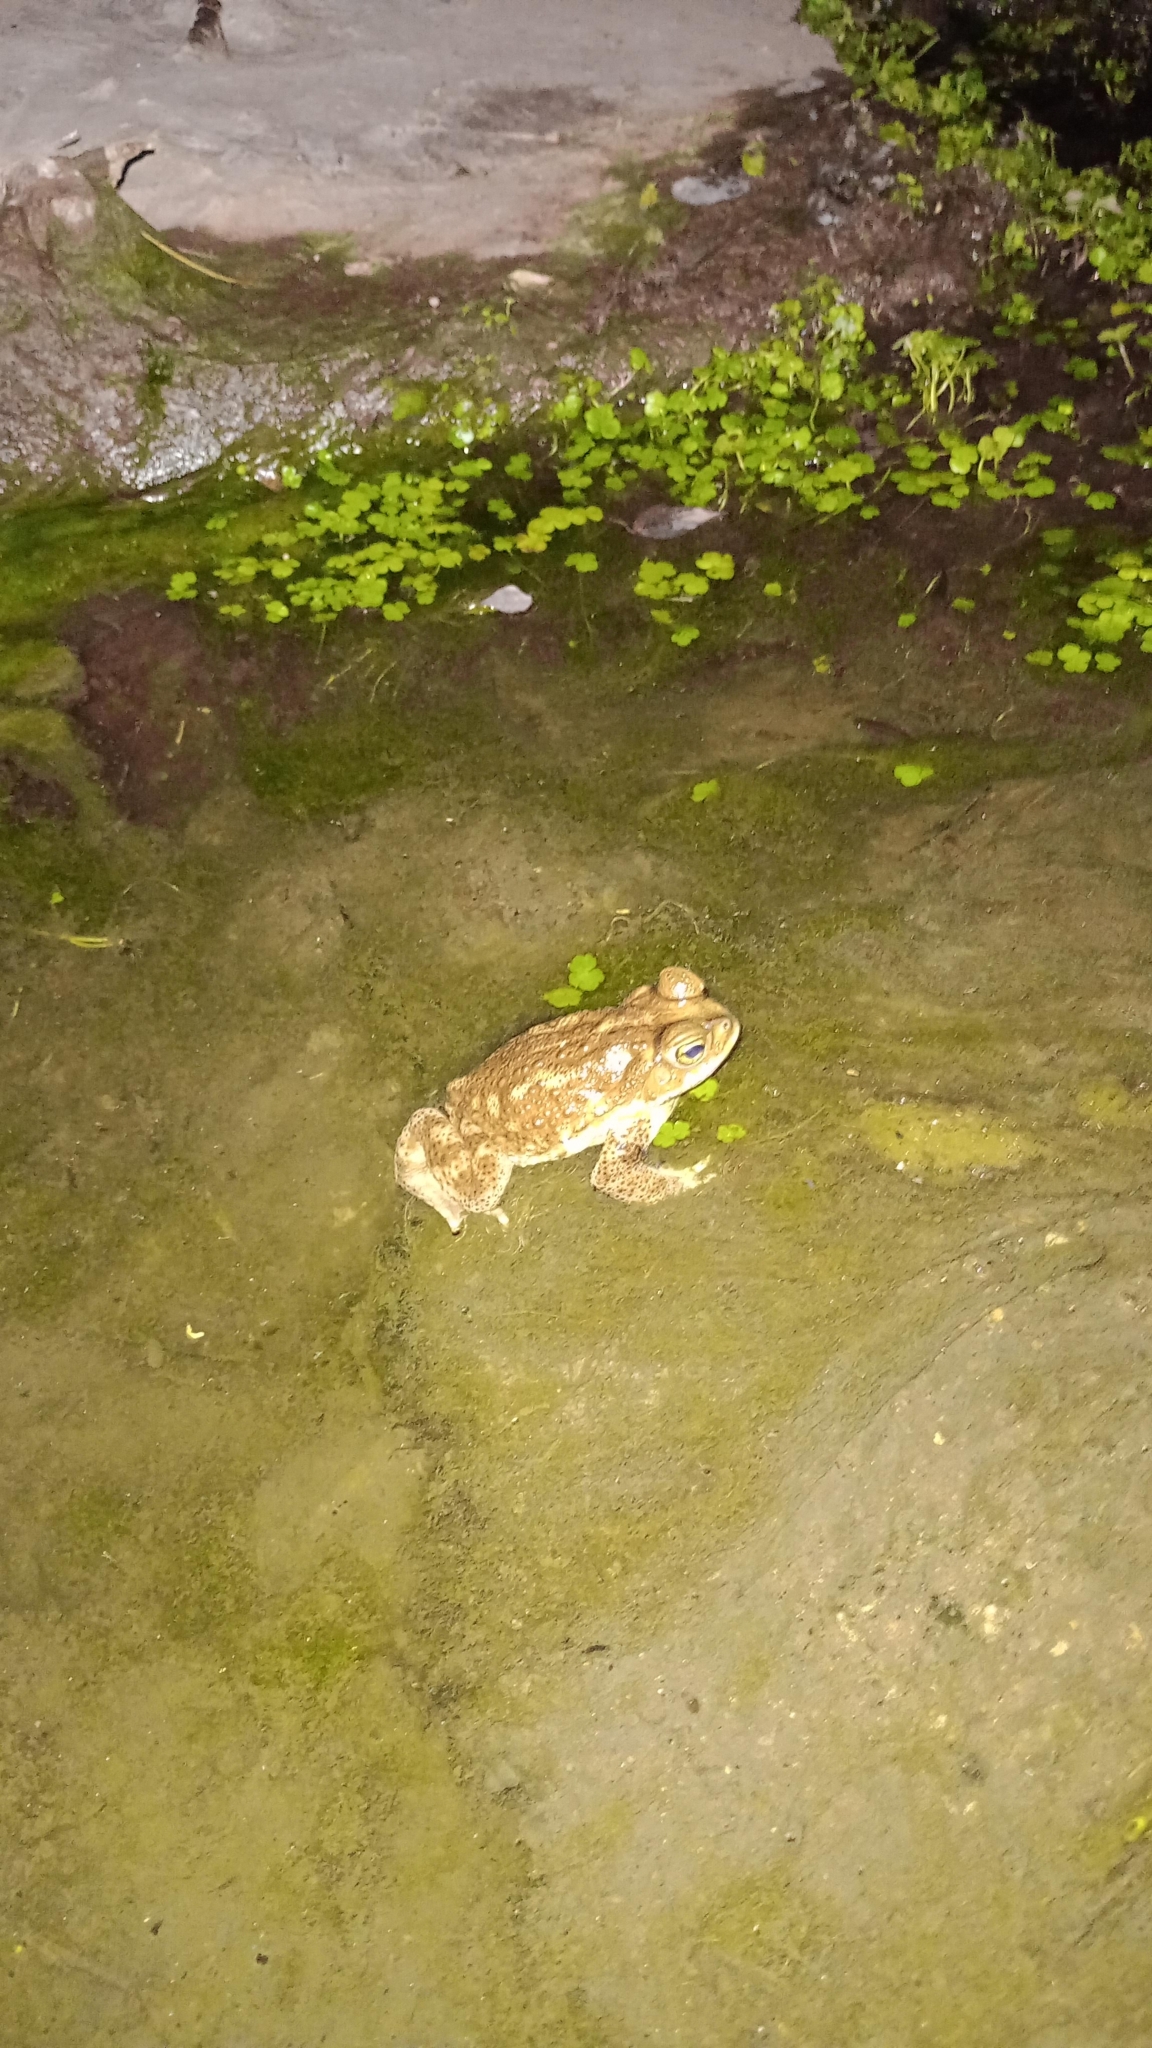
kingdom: Animalia
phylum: Chordata
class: Amphibia
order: Anura
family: Bufonidae
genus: Rhinella
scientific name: Rhinella arenarum
